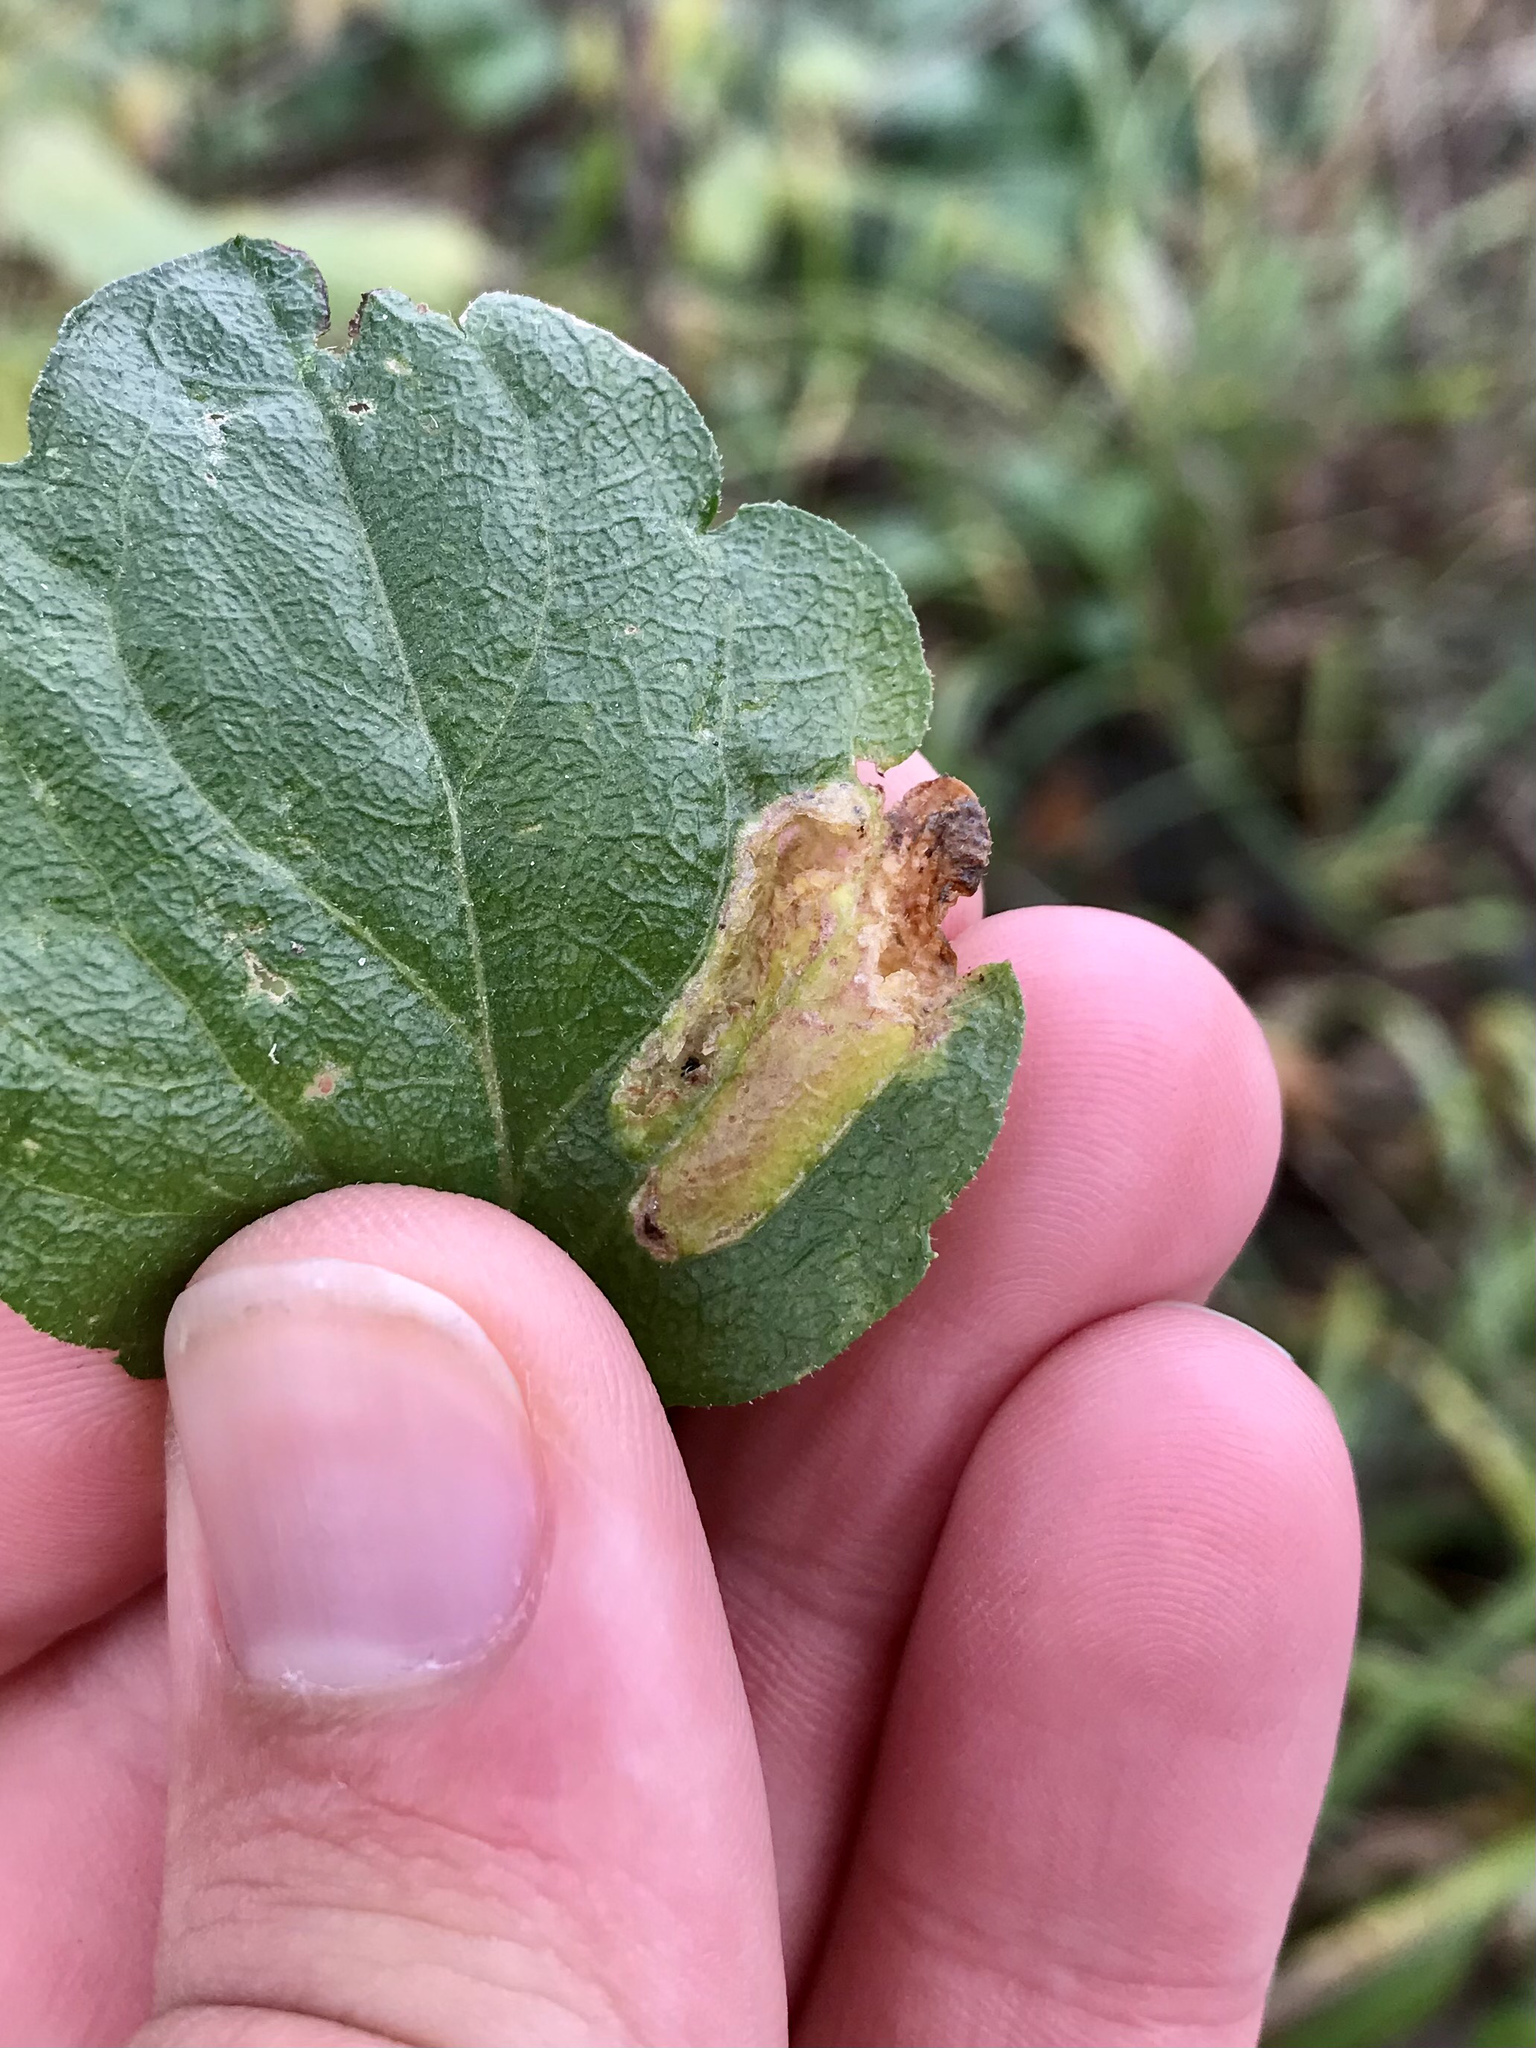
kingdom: Animalia
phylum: Arthropoda
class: Insecta
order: Lepidoptera
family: Gracillariidae
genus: Parectopa
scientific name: Parectopa plantaginisella
